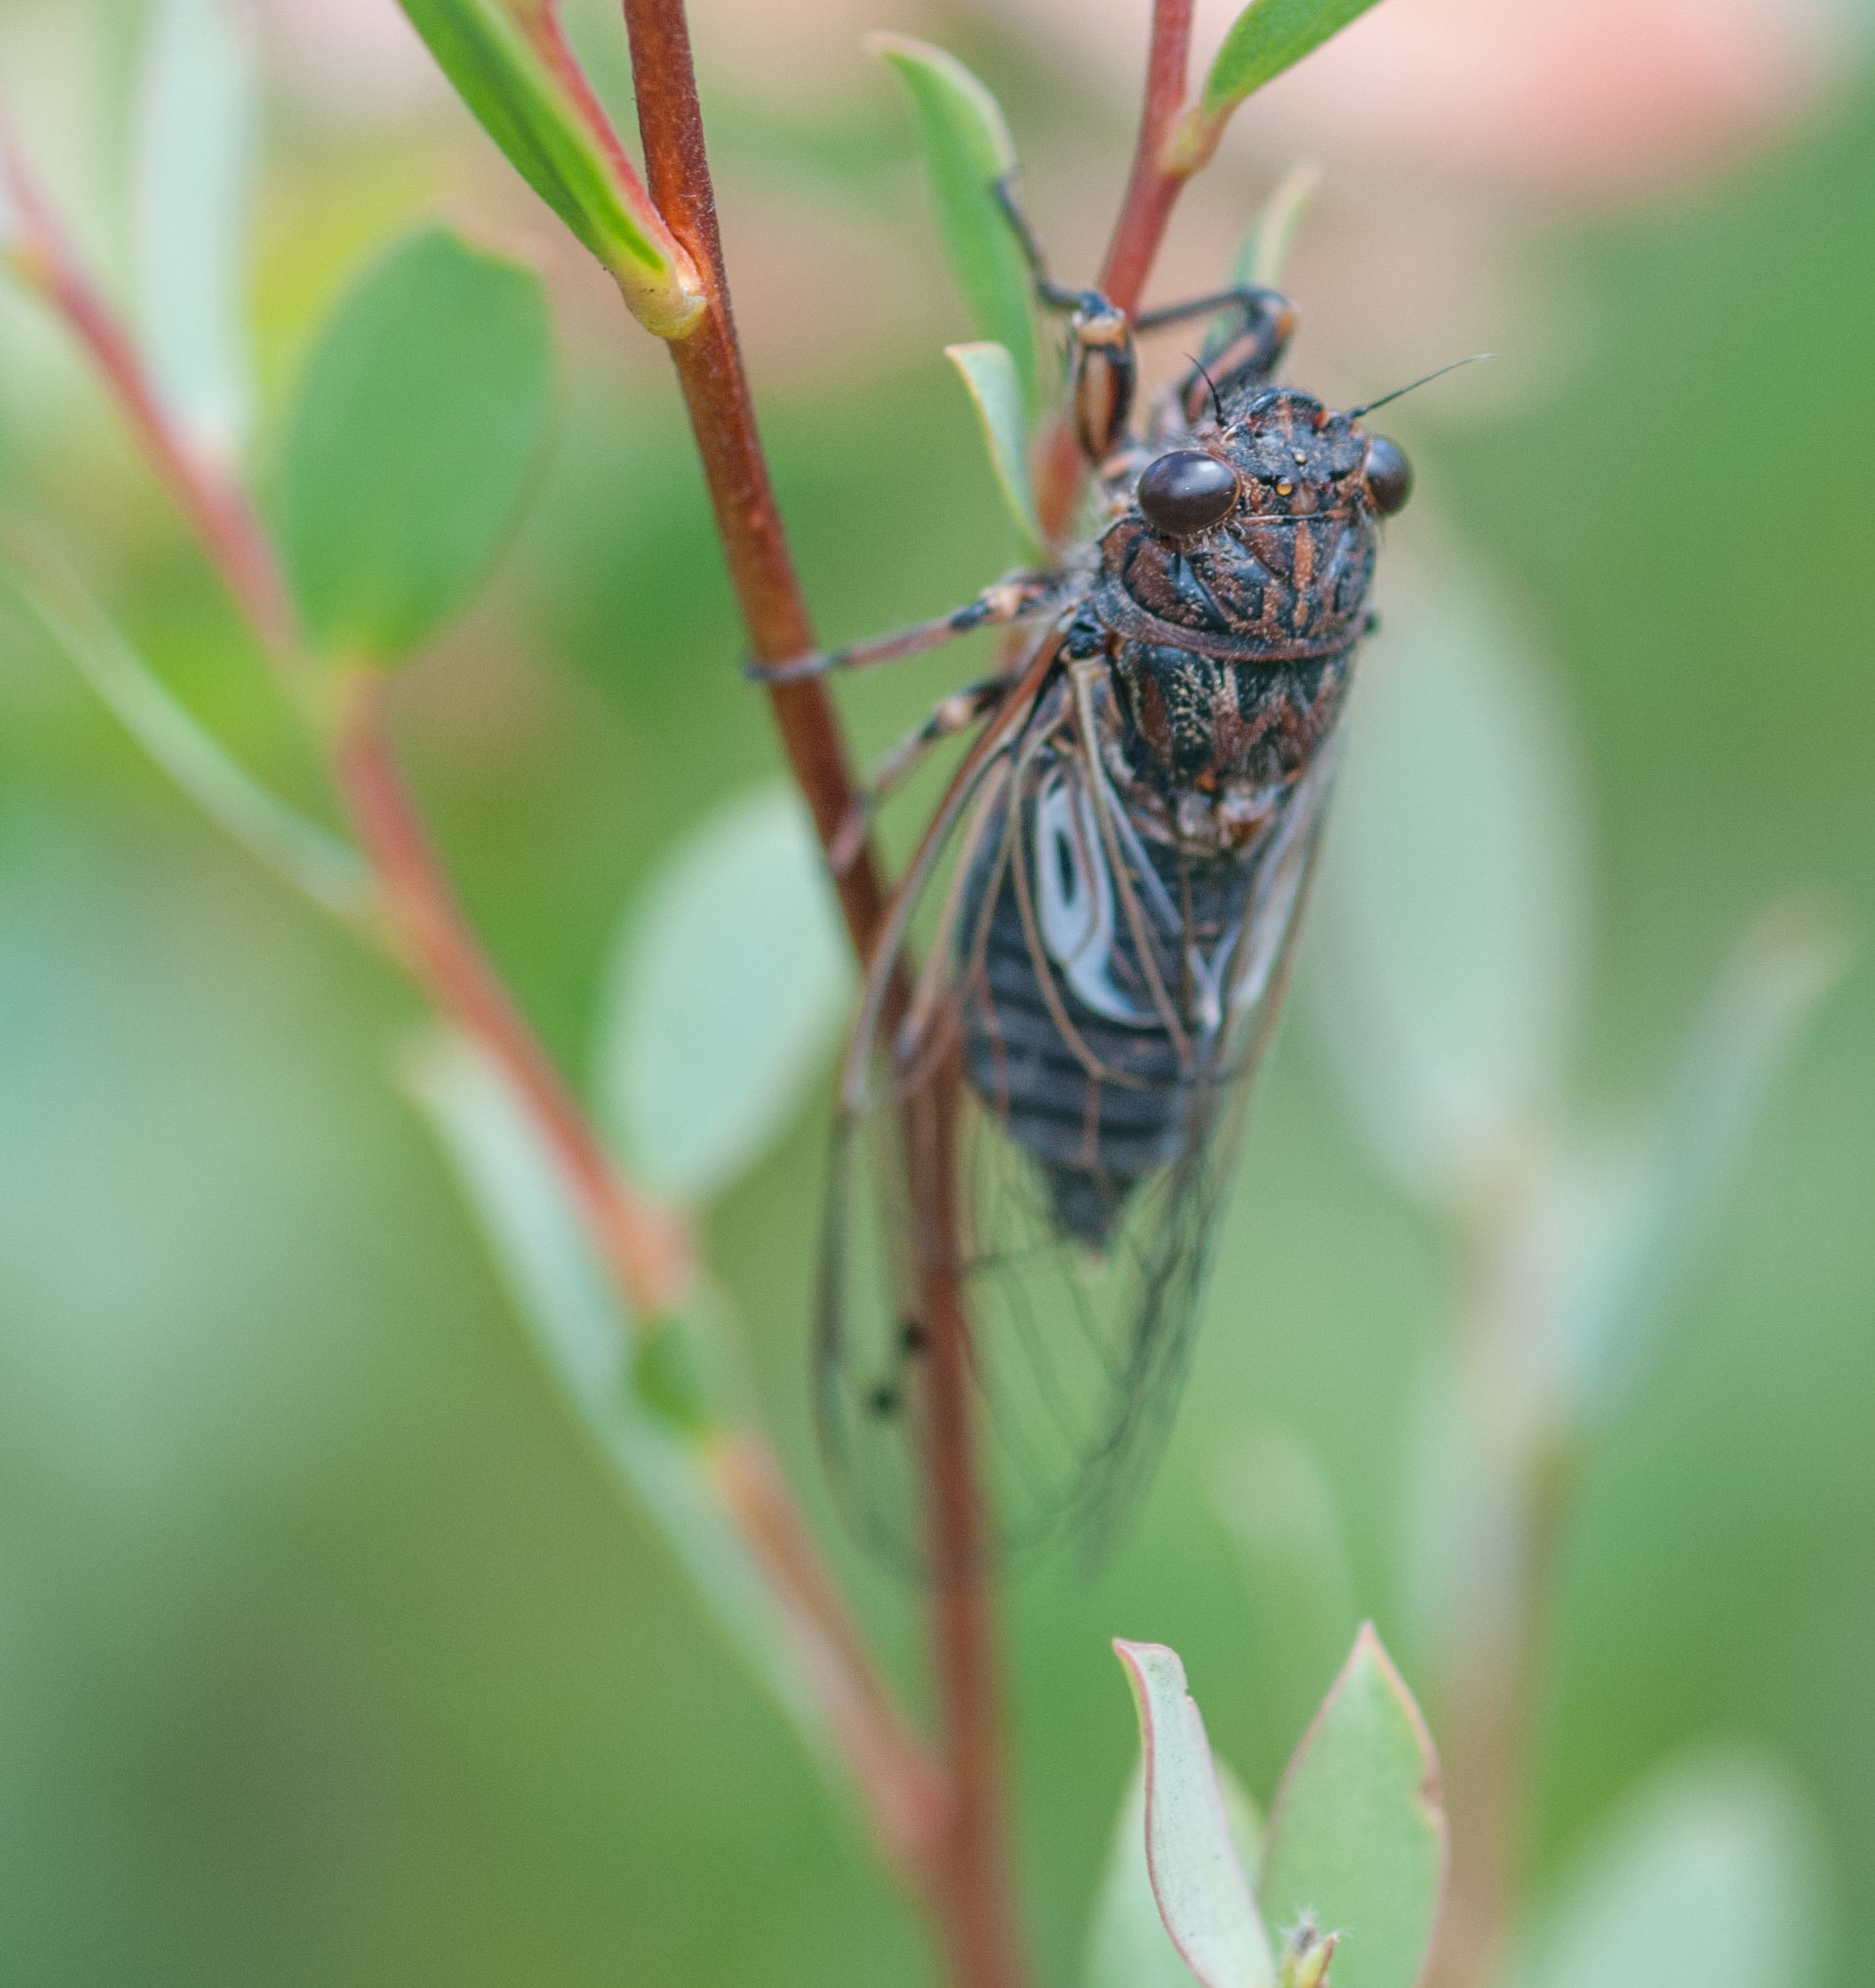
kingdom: Animalia
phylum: Arthropoda
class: Insecta
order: Hemiptera
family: Cicadidae
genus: Gelidea
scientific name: Gelidea torrida
